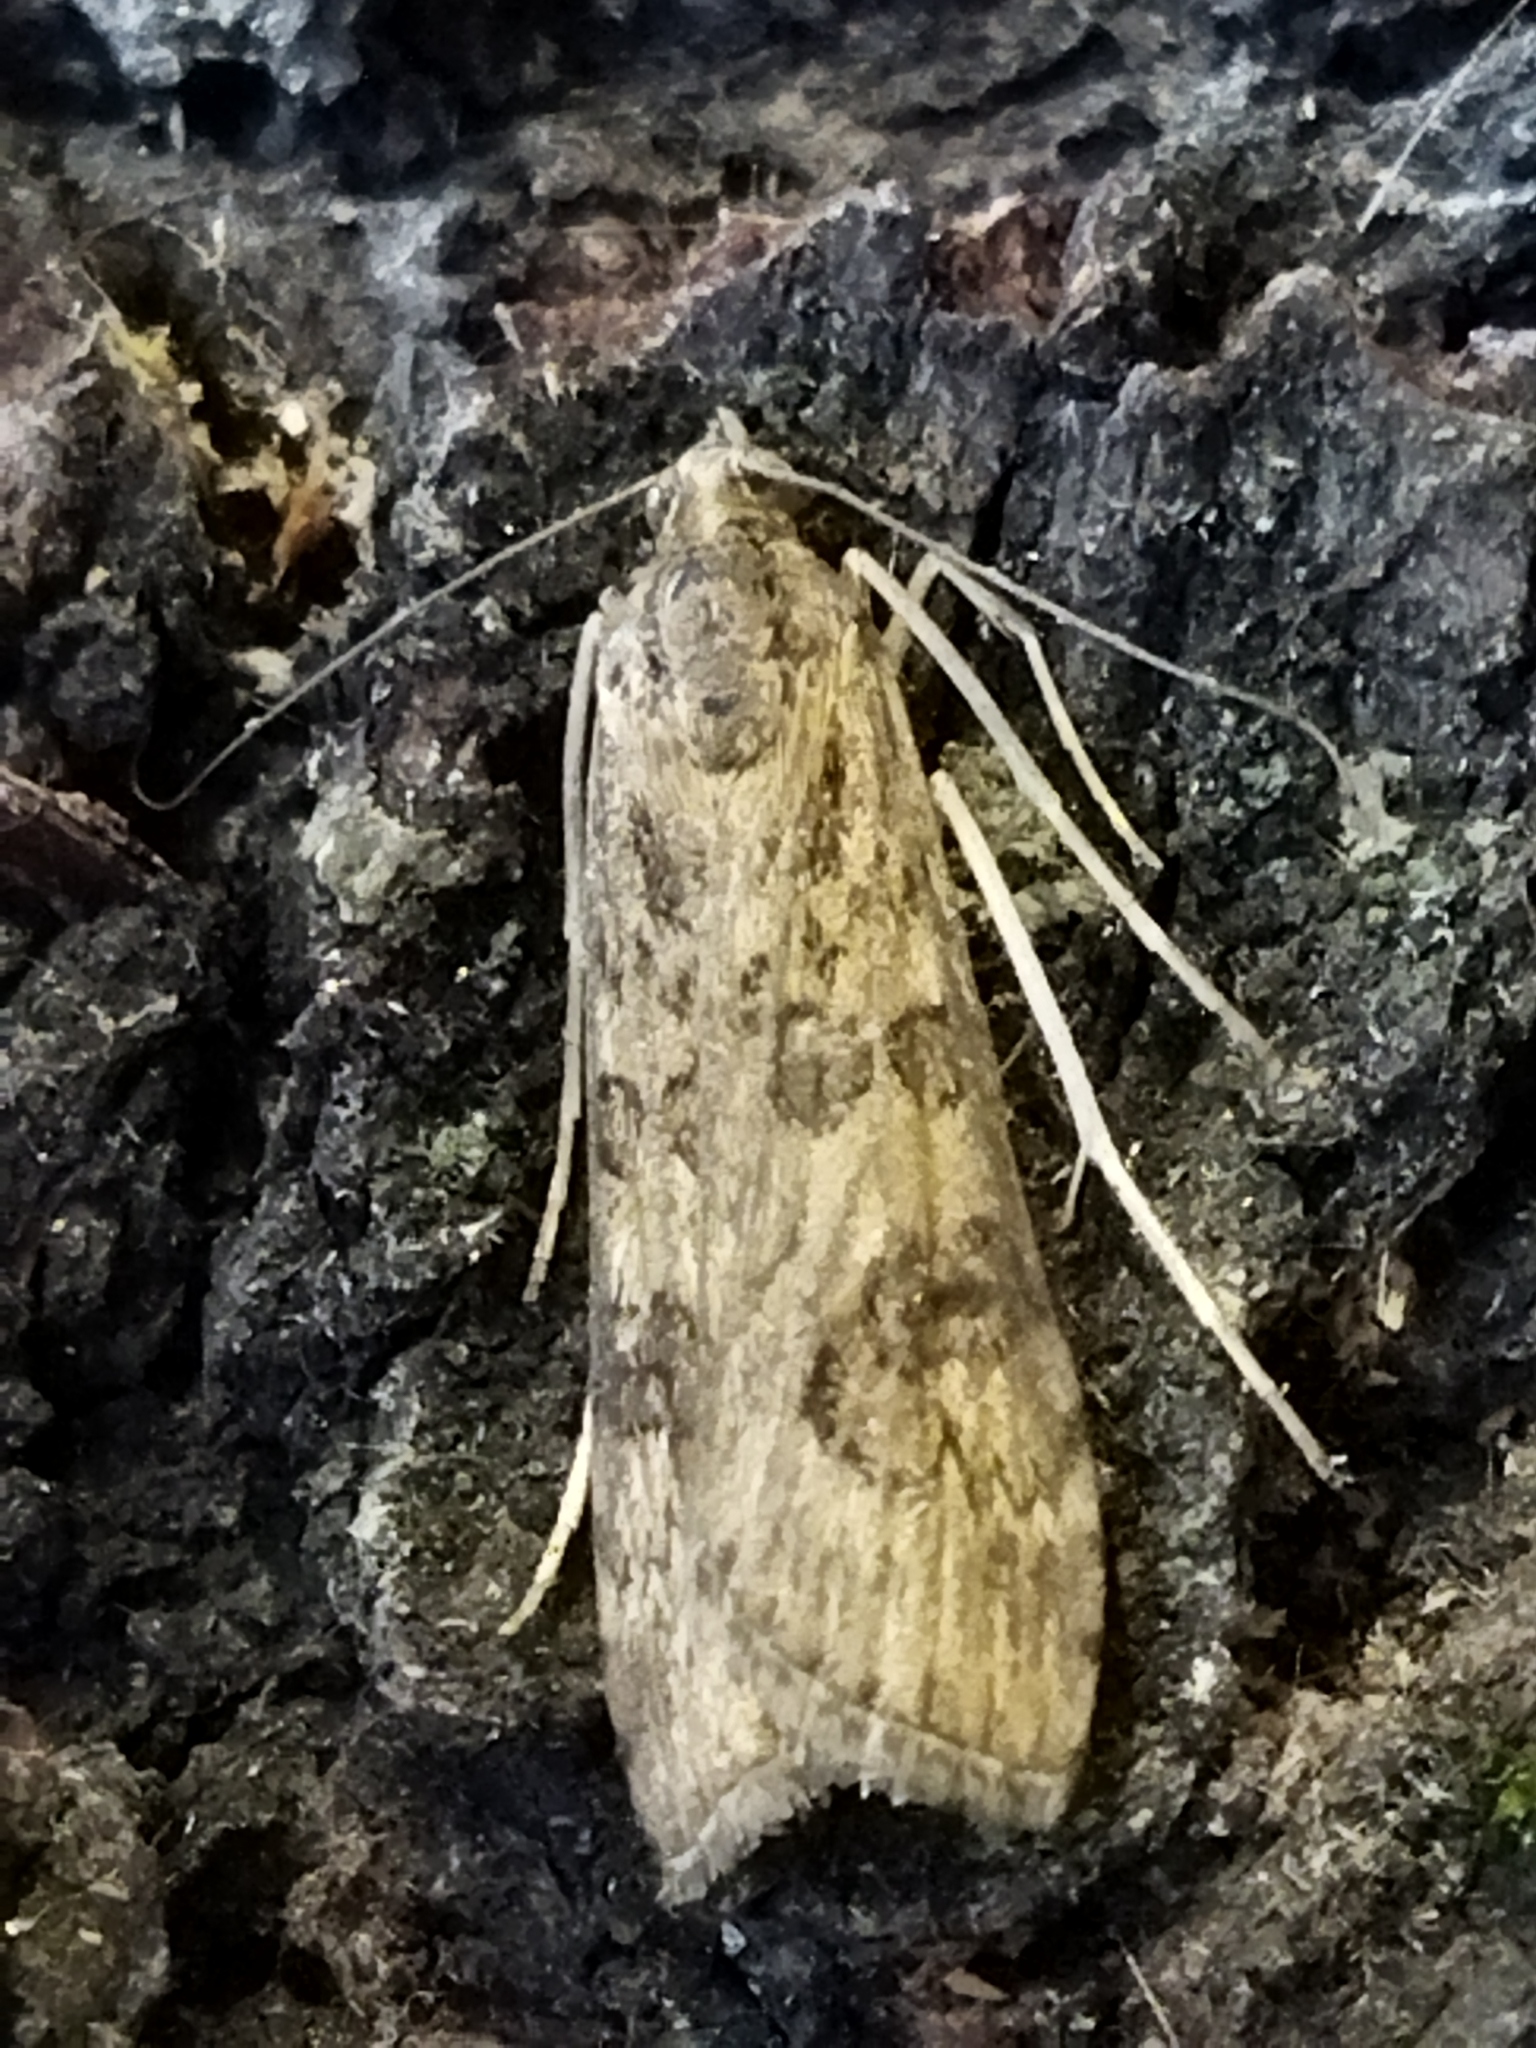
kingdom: Animalia
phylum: Arthropoda
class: Insecta
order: Lepidoptera
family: Crambidae
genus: Nomophila
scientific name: Nomophila noctuella
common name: Rush veneer
